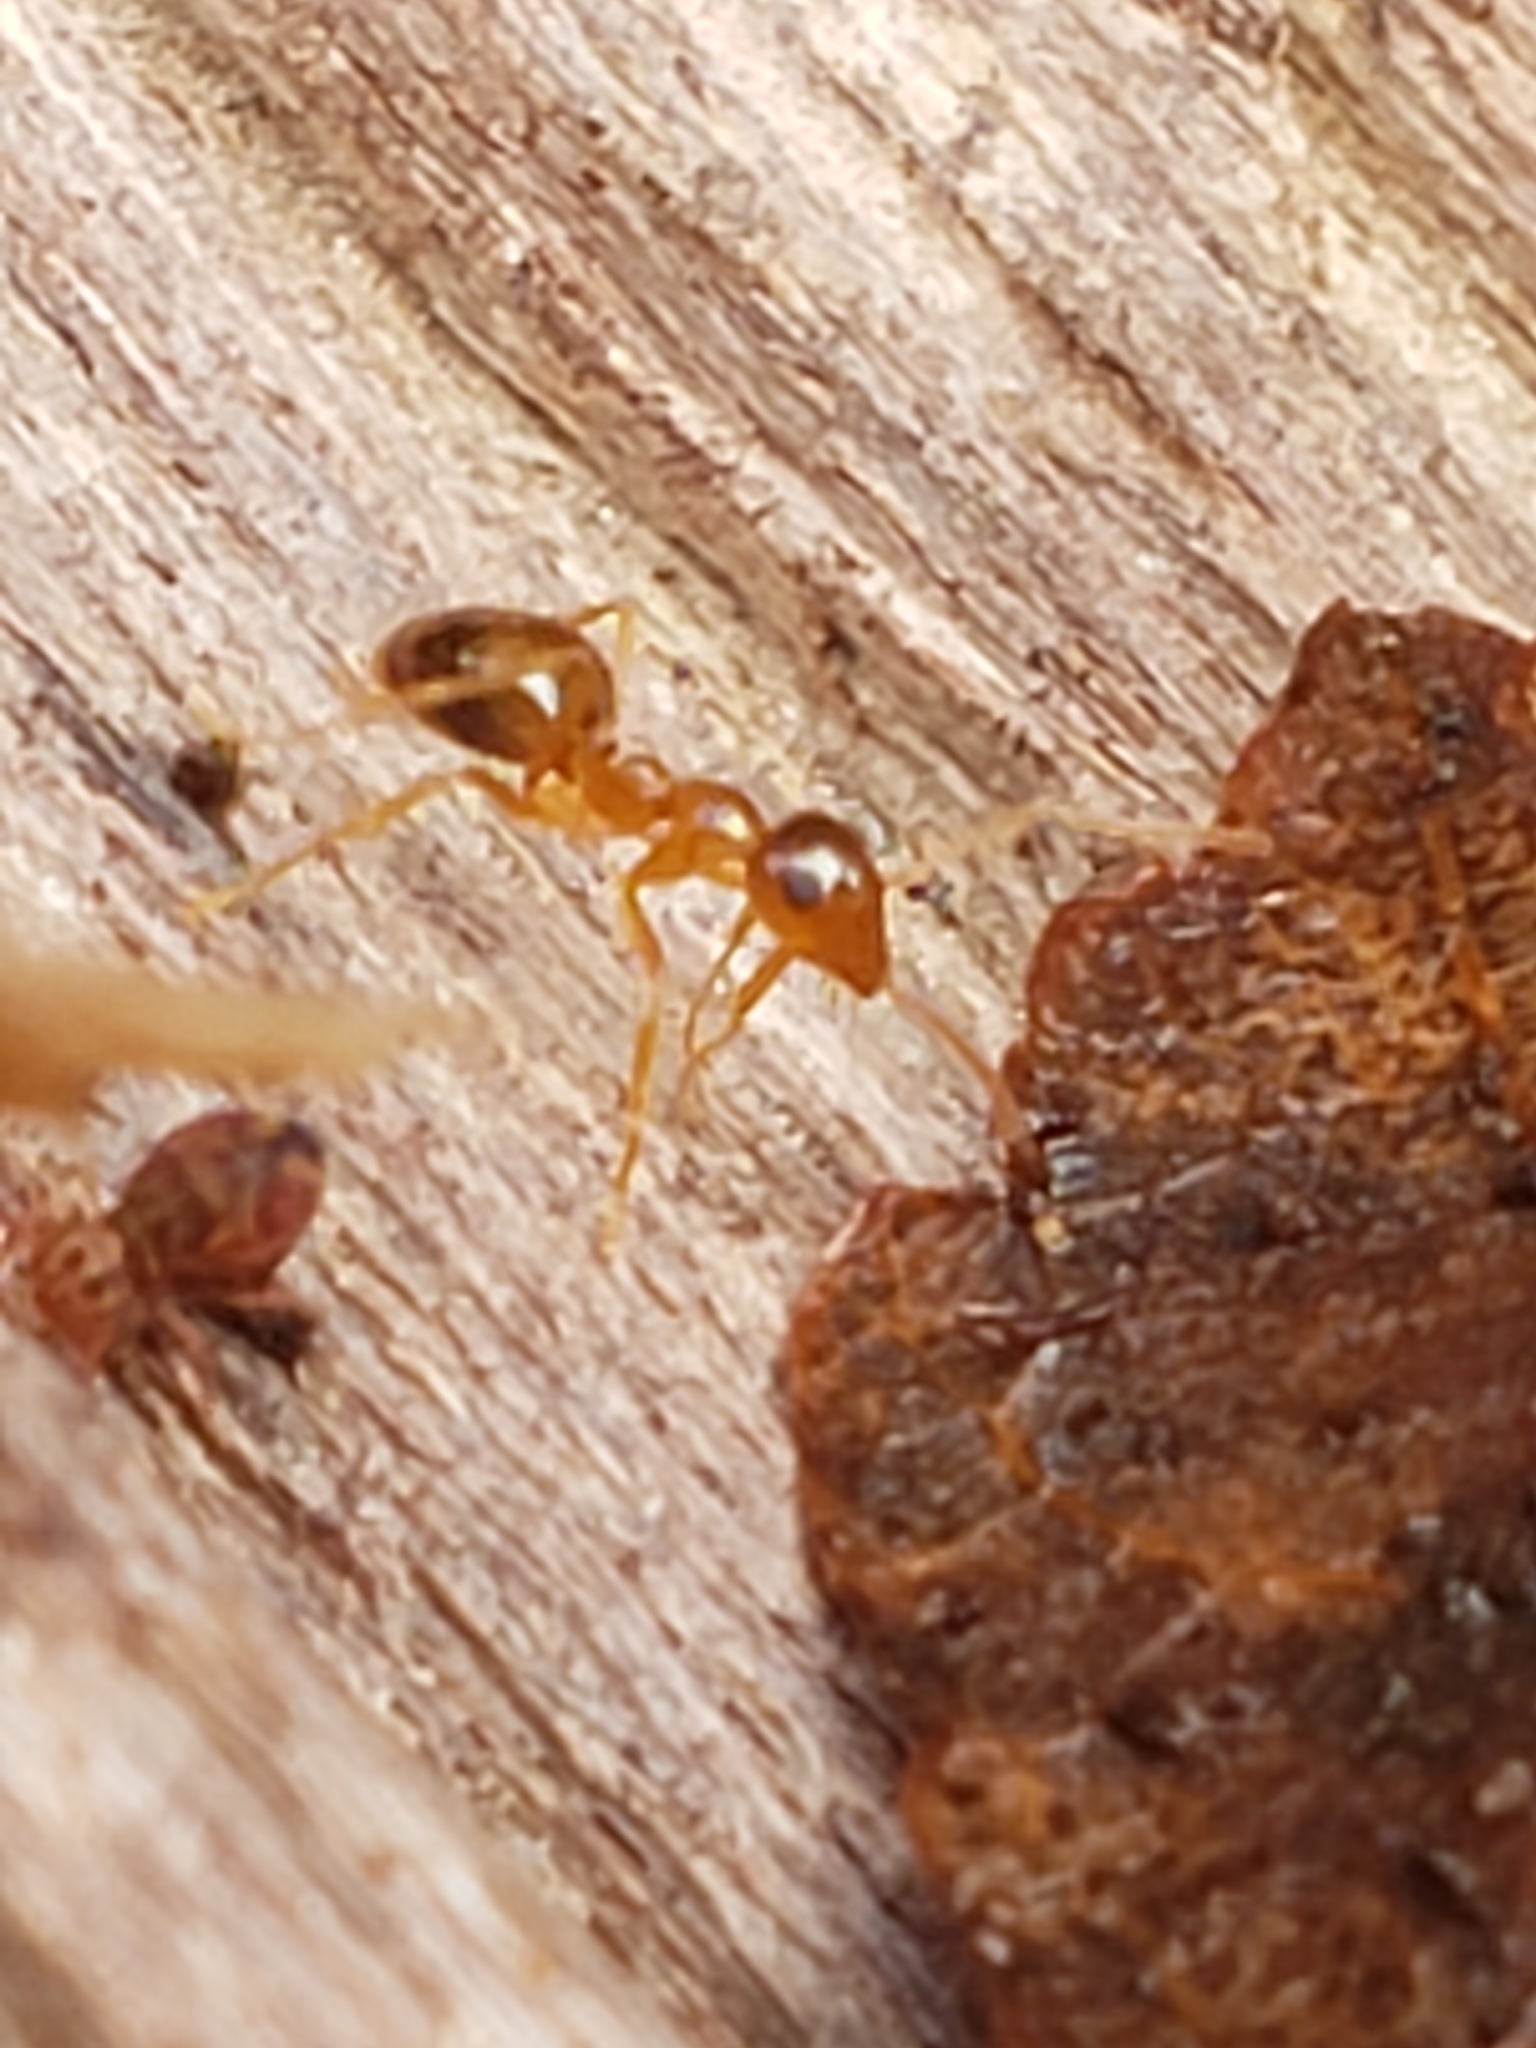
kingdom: Animalia
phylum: Arthropoda
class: Insecta
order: Hymenoptera
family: Formicidae
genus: Prenolepis
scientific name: Prenolepis imparis
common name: Small honey ant
